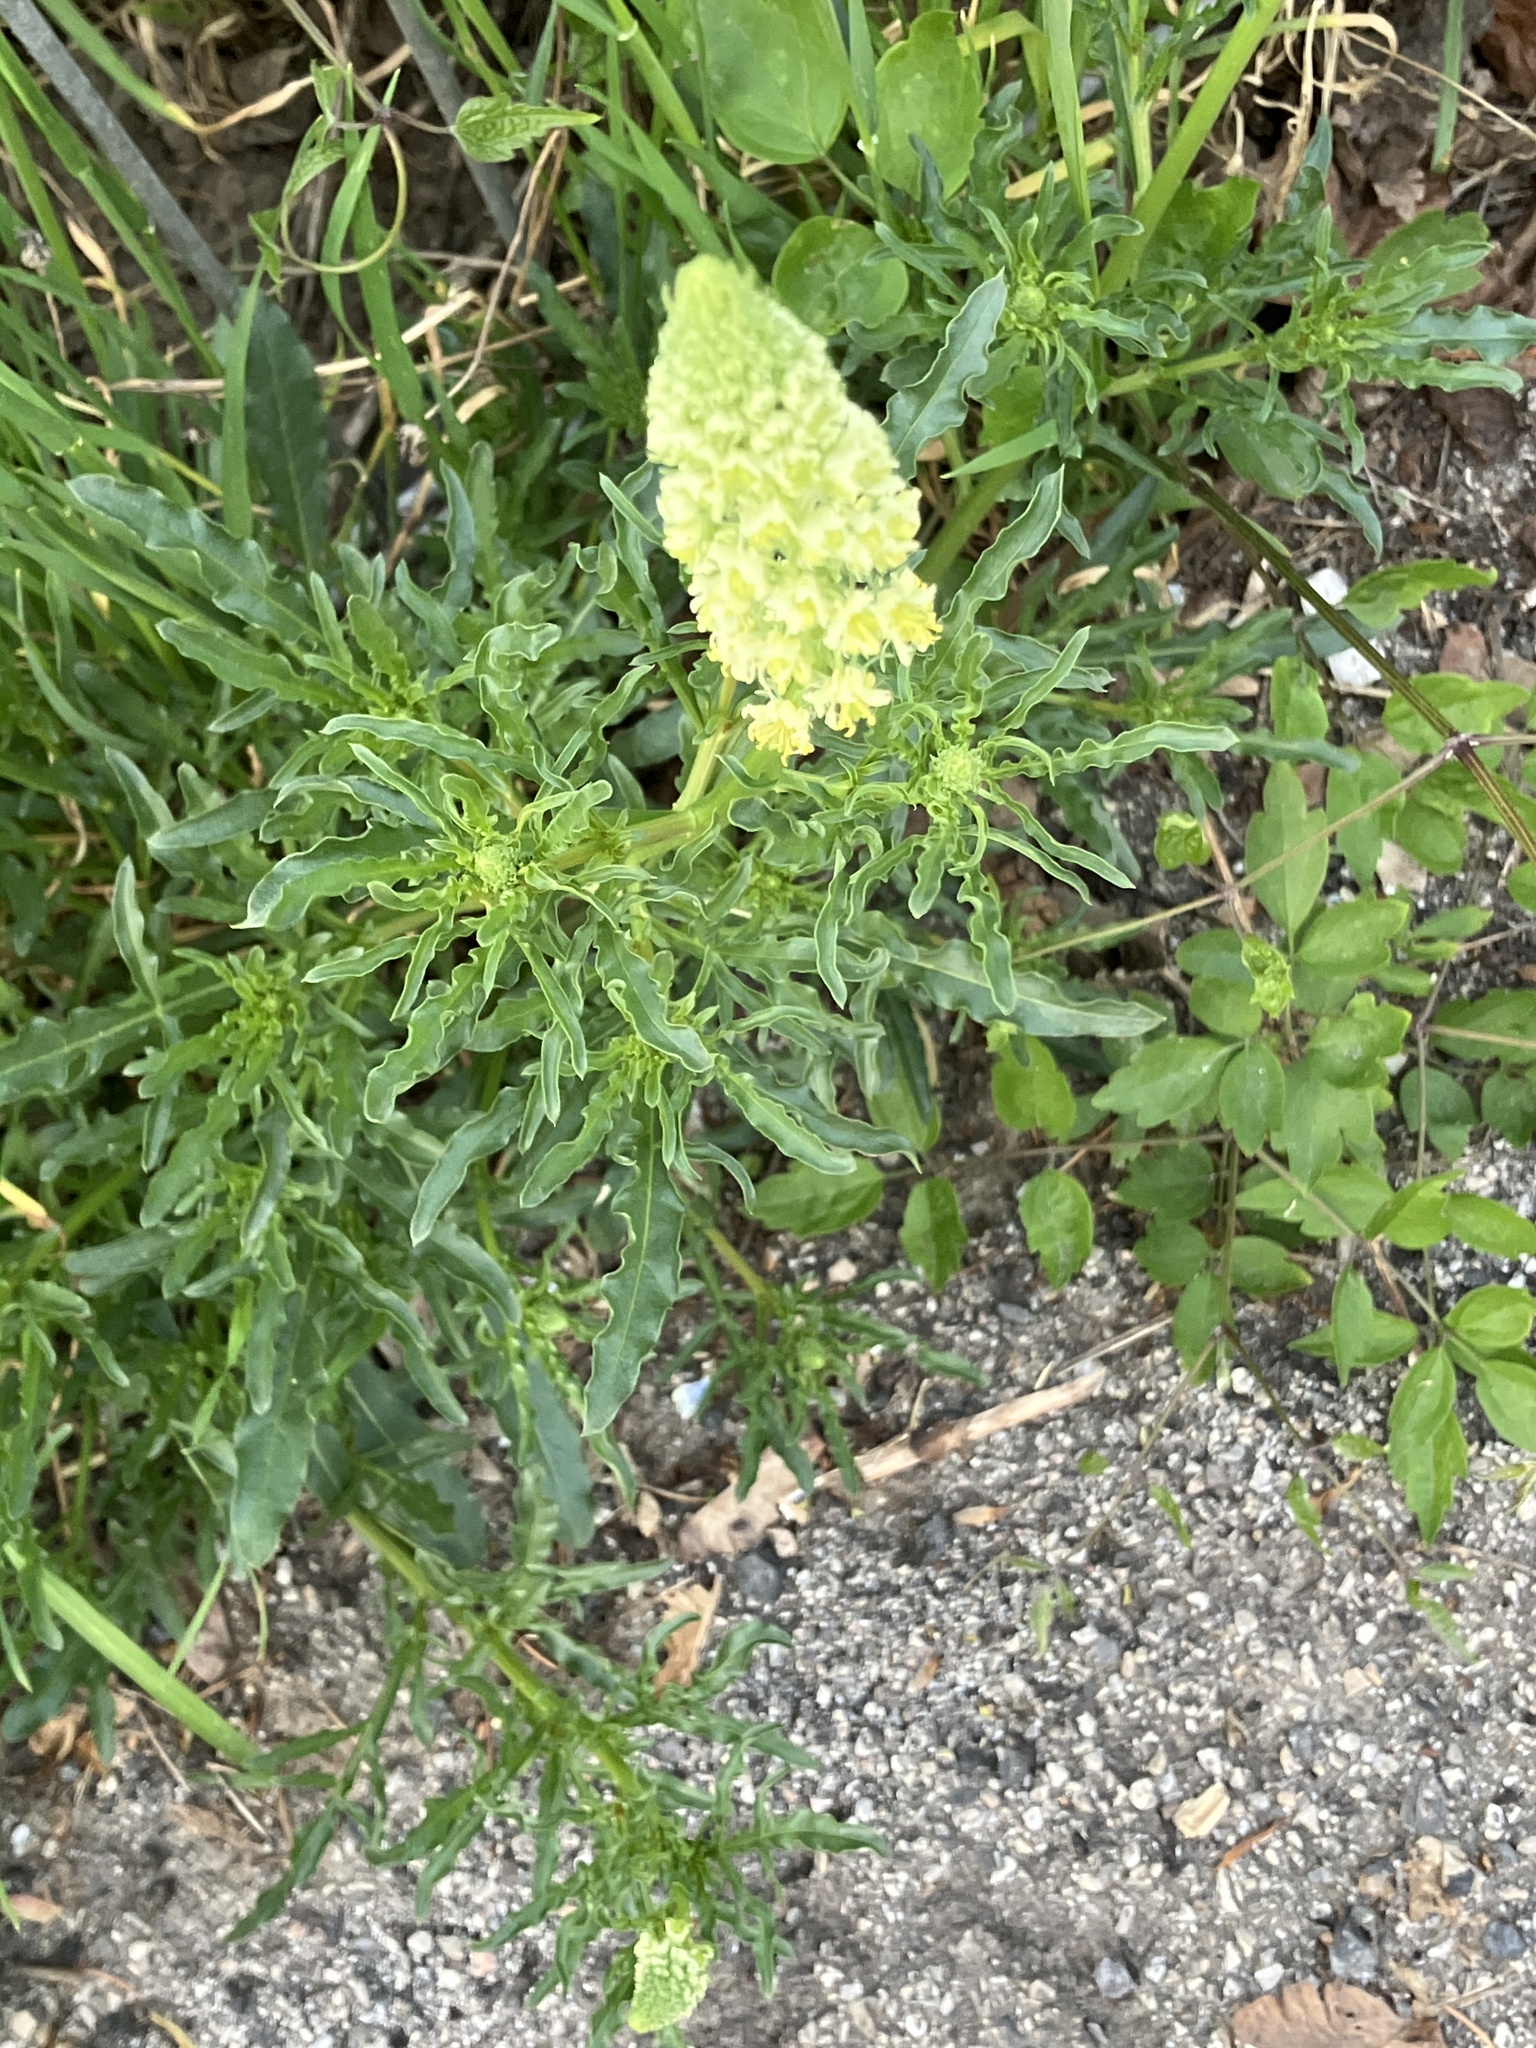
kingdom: Plantae
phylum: Tracheophyta
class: Magnoliopsida
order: Brassicales
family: Resedaceae
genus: Reseda
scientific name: Reseda lutea
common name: Wild mignonette
